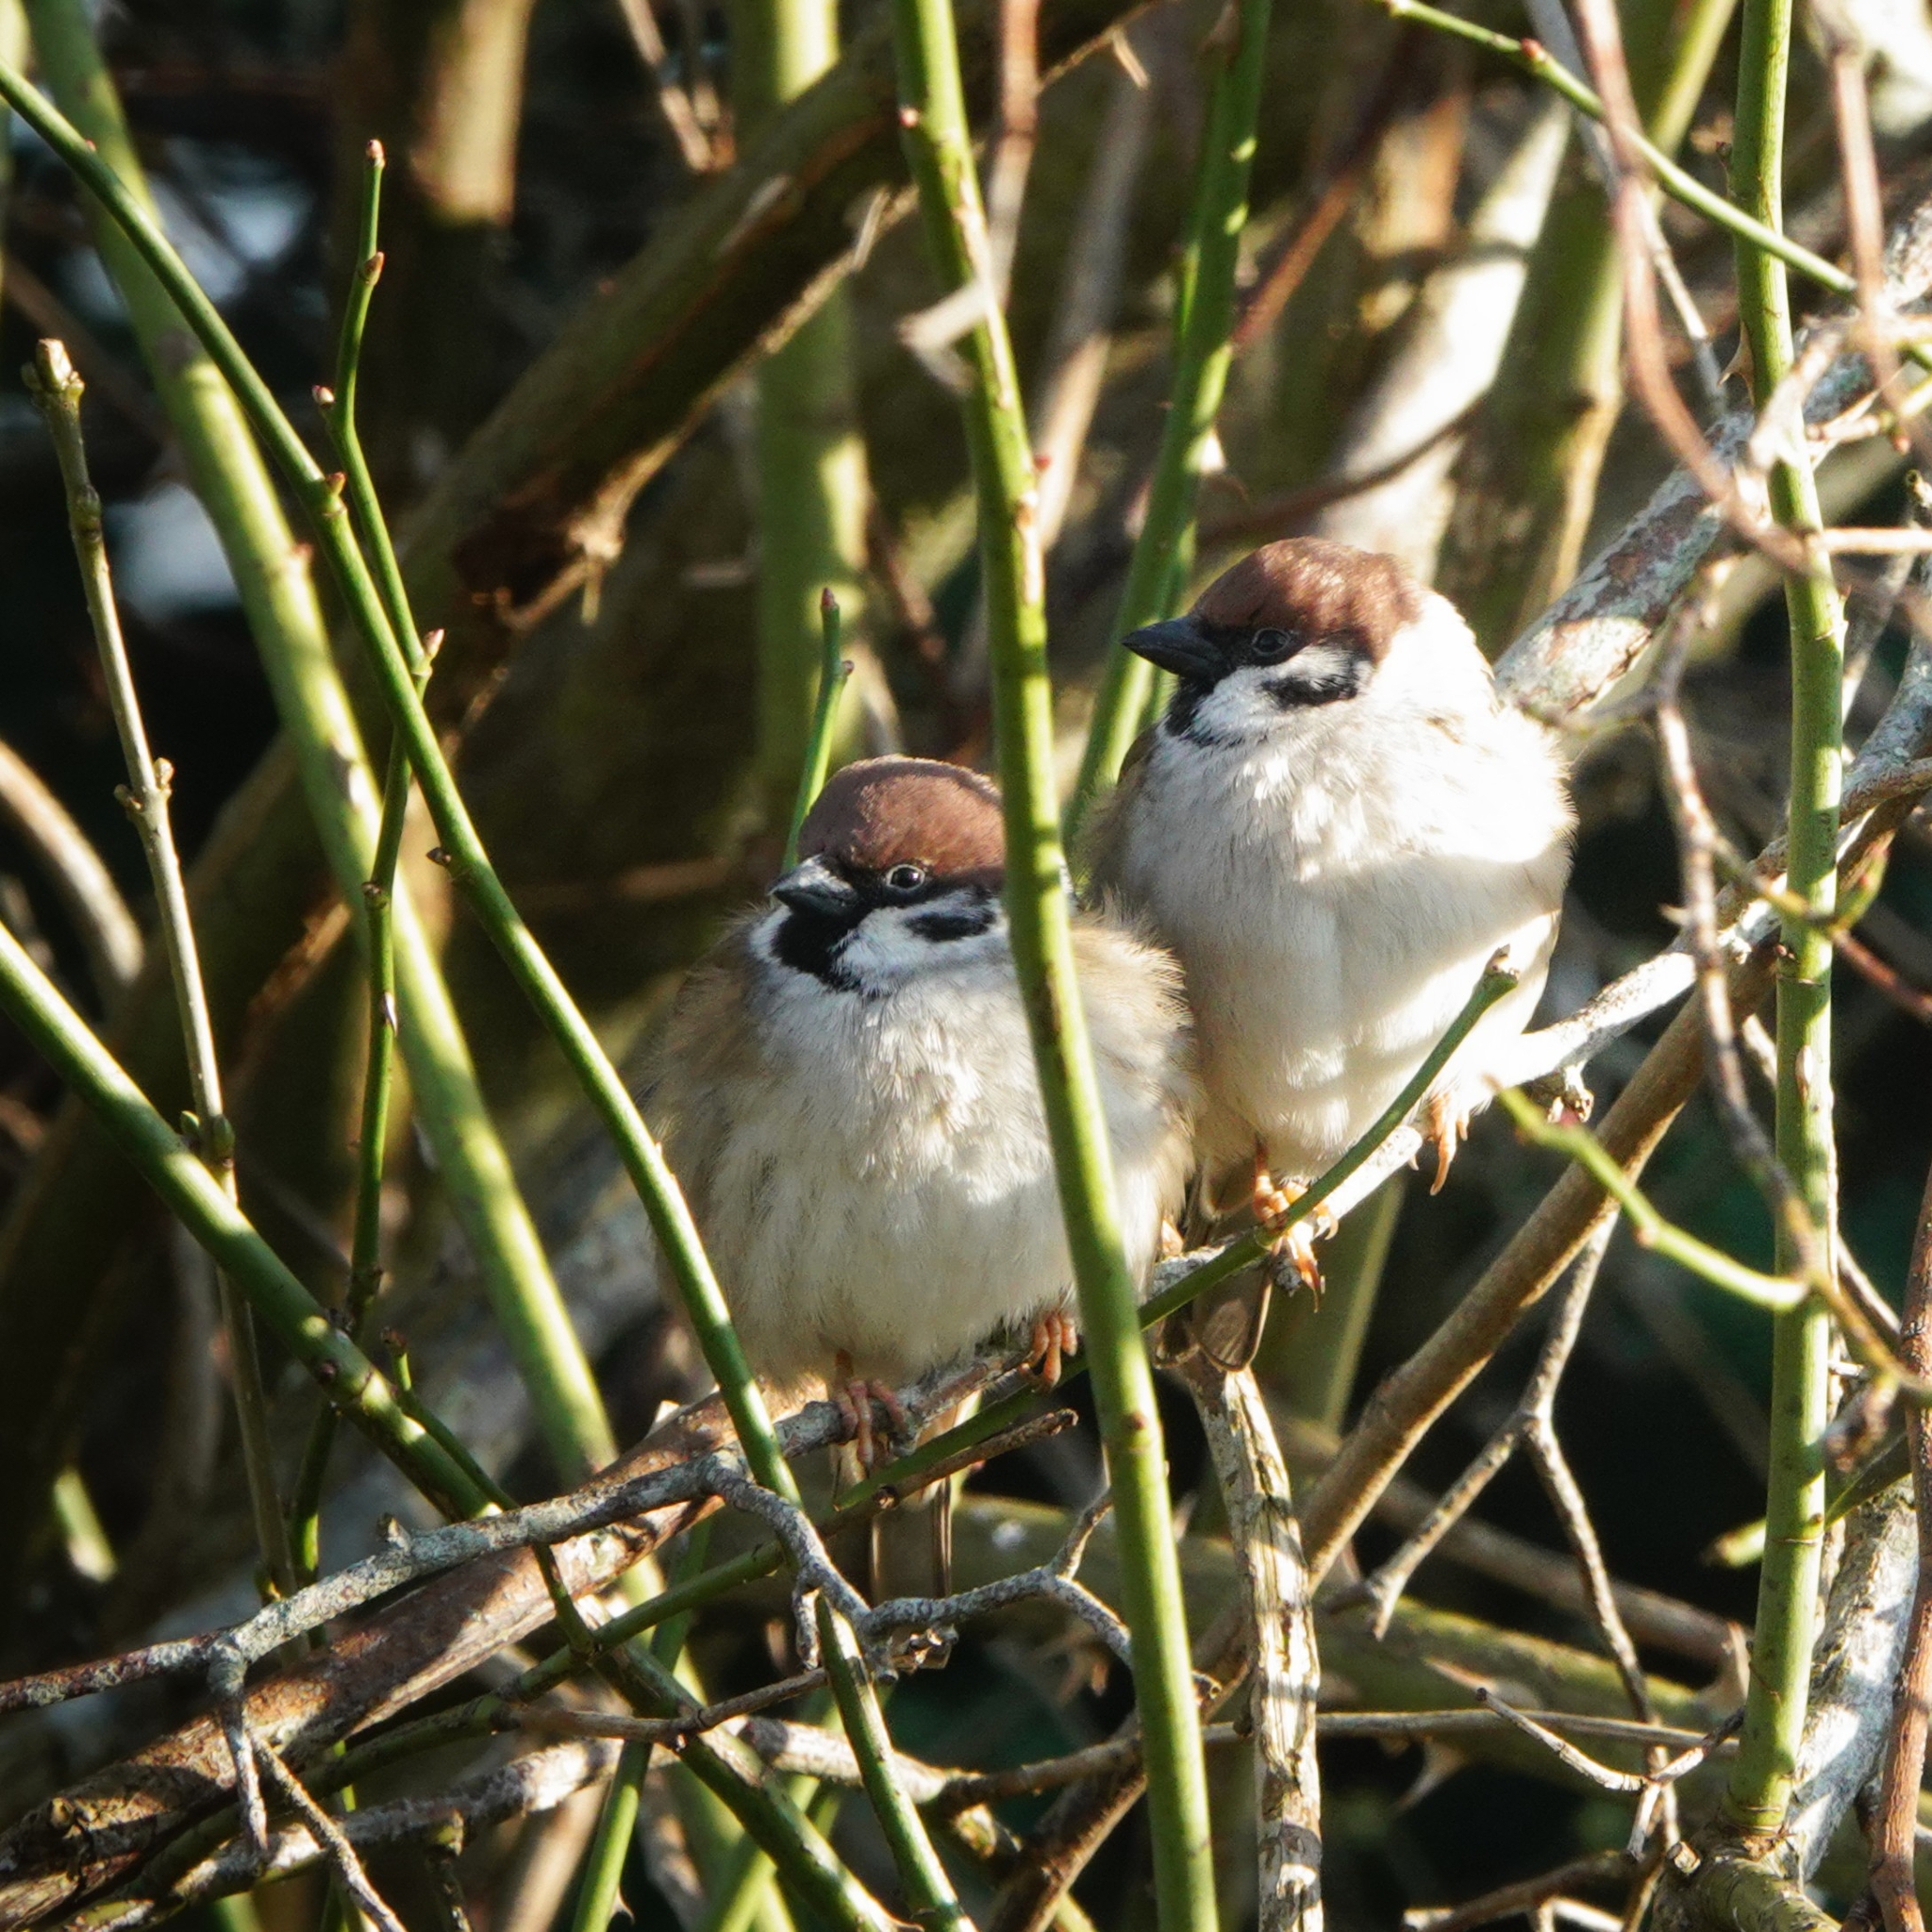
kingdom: Animalia
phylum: Chordata
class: Aves
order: Passeriformes
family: Passeridae
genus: Passer
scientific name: Passer montanus
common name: Eurasian tree sparrow
